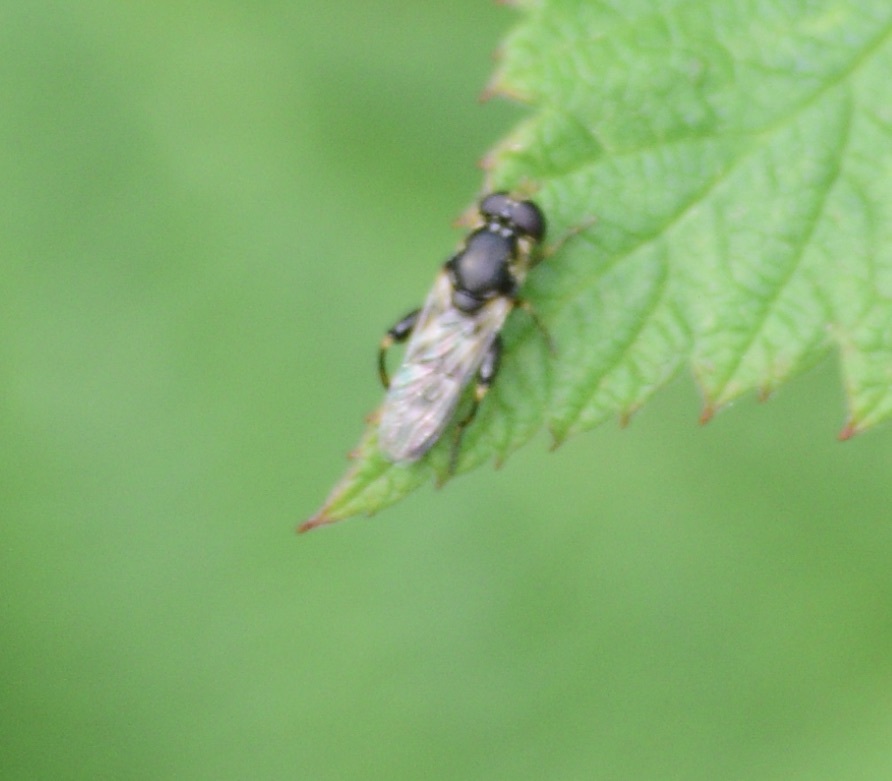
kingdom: Animalia
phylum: Arthropoda
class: Insecta
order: Diptera
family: Syrphidae
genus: Syritta
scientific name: Syritta pipiens
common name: Hover fly
